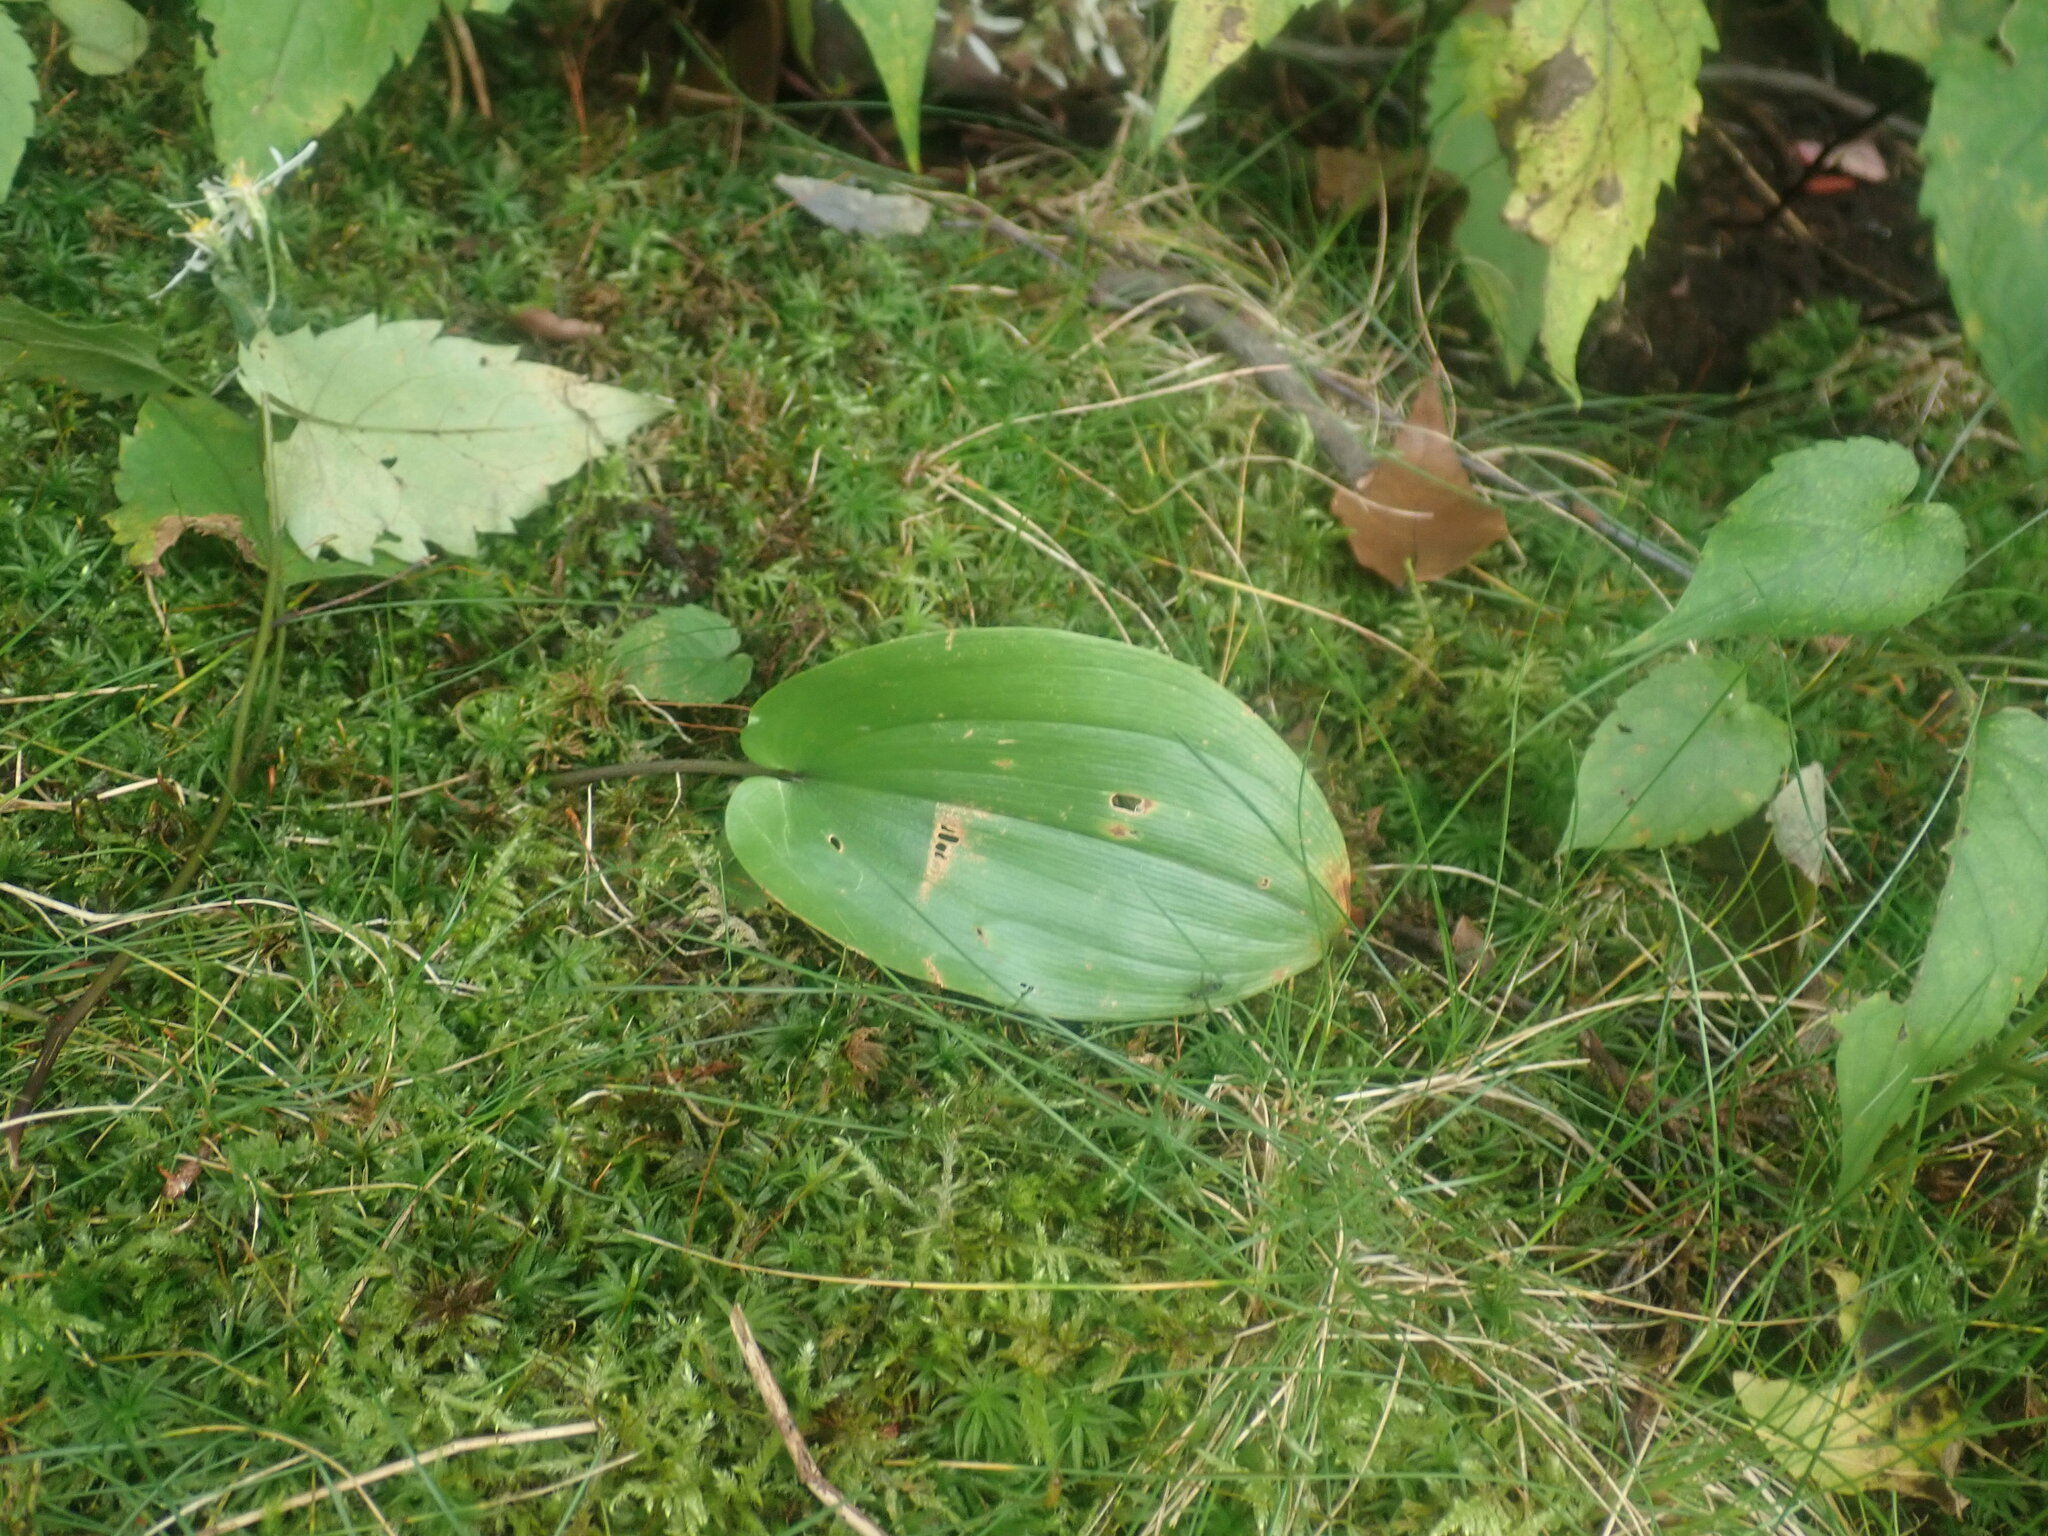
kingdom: Plantae
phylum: Tracheophyta
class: Liliopsida
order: Asparagales
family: Asparagaceae
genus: Maianthemum
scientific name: Maianthemum canadense
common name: False lily-of-the-valley
